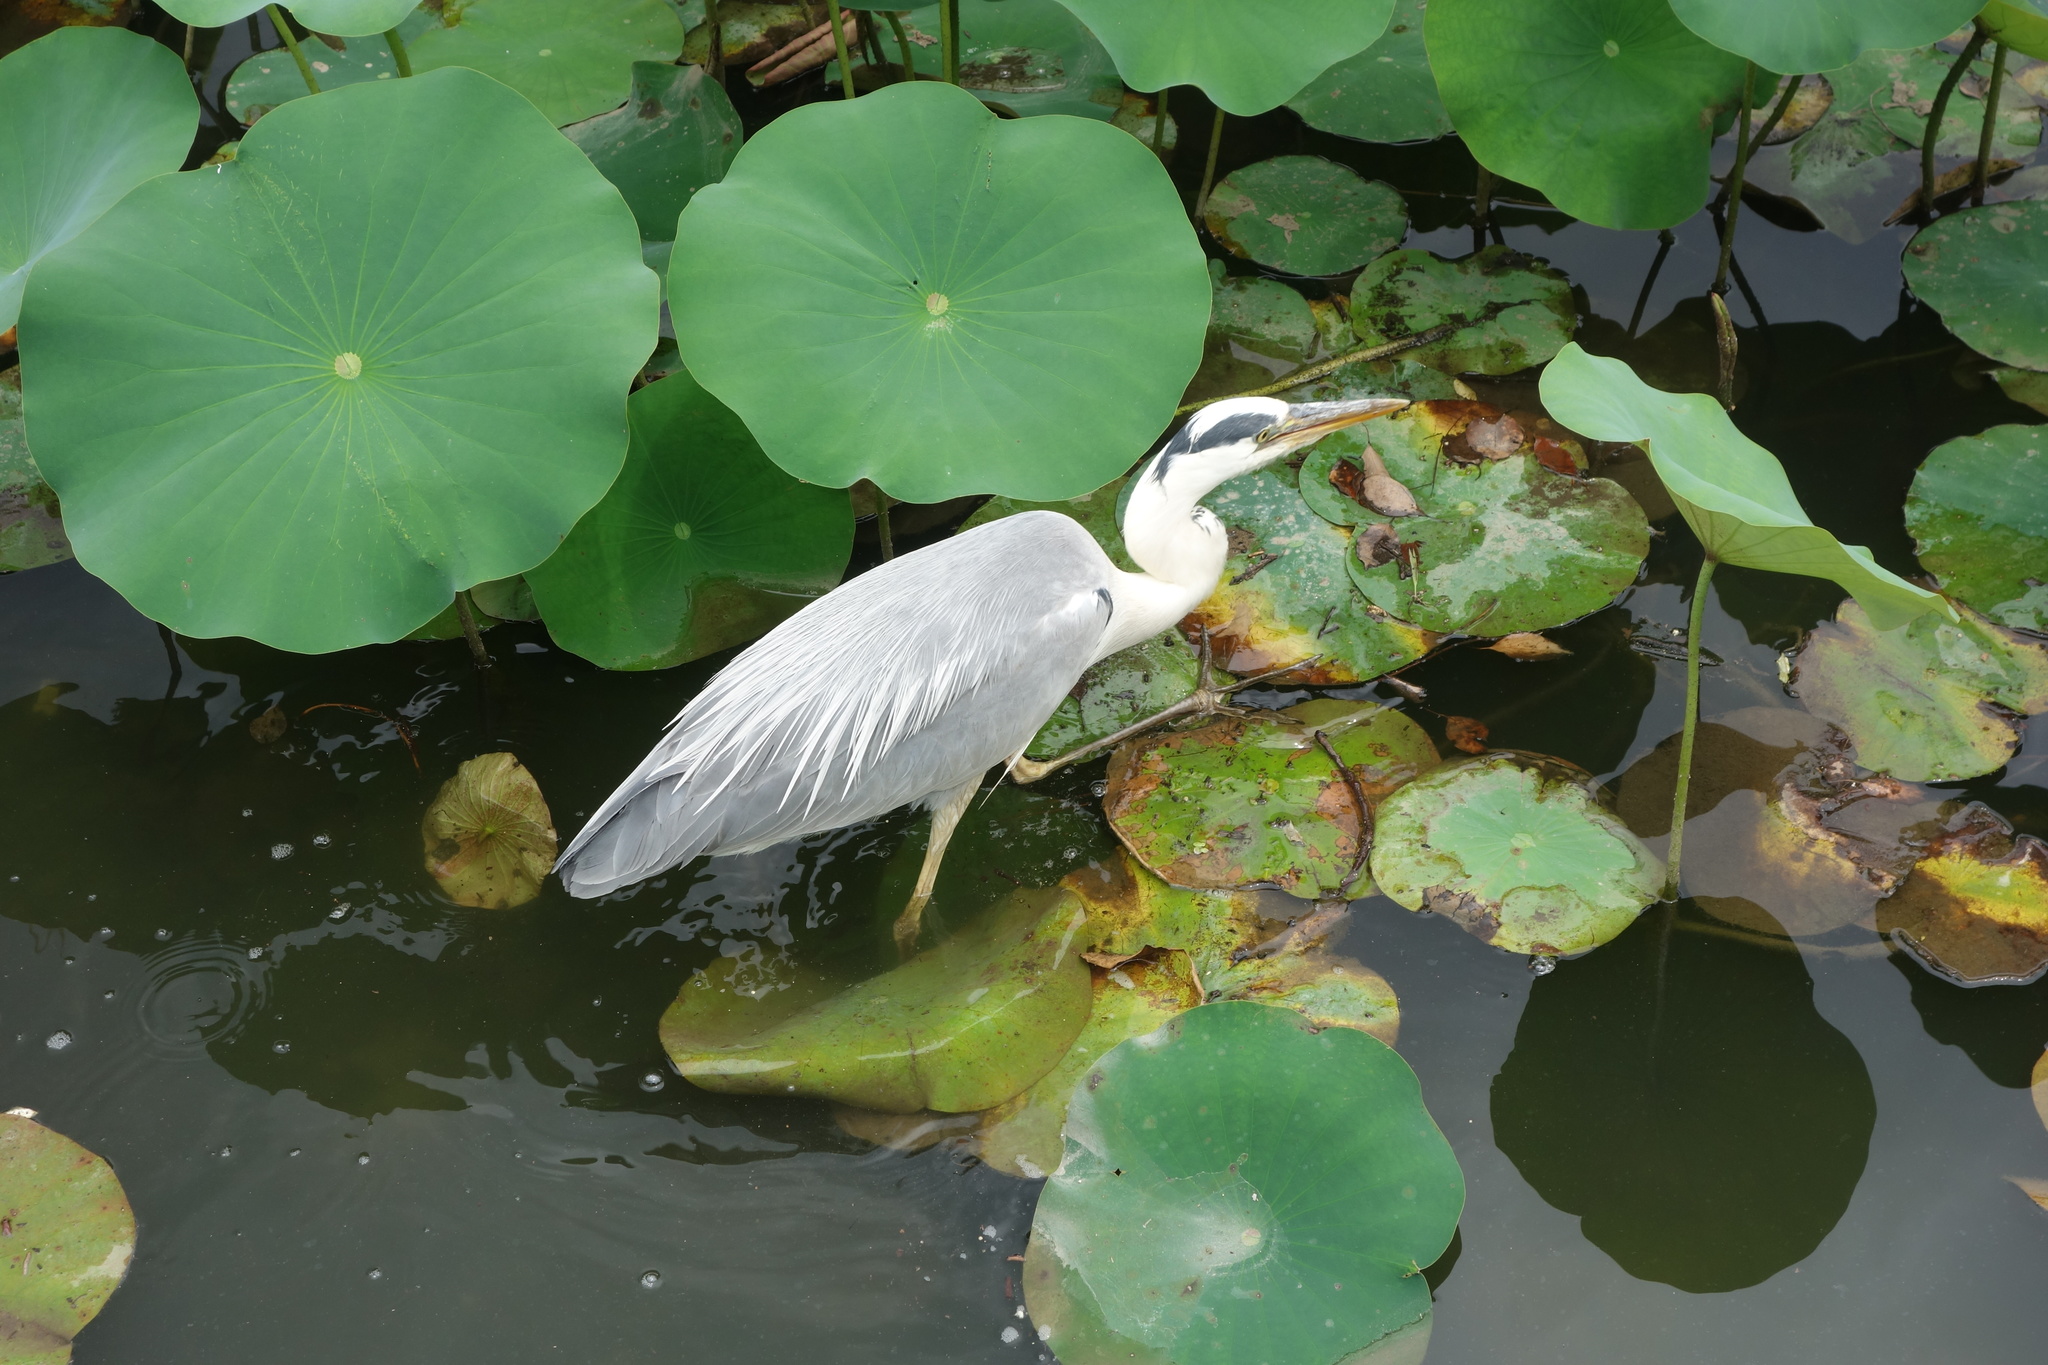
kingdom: Animalia
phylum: Chordata
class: Aves
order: Pelecaniformes
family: Ardeidae
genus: Ardea
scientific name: Ardea cinerea
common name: Grey heron
